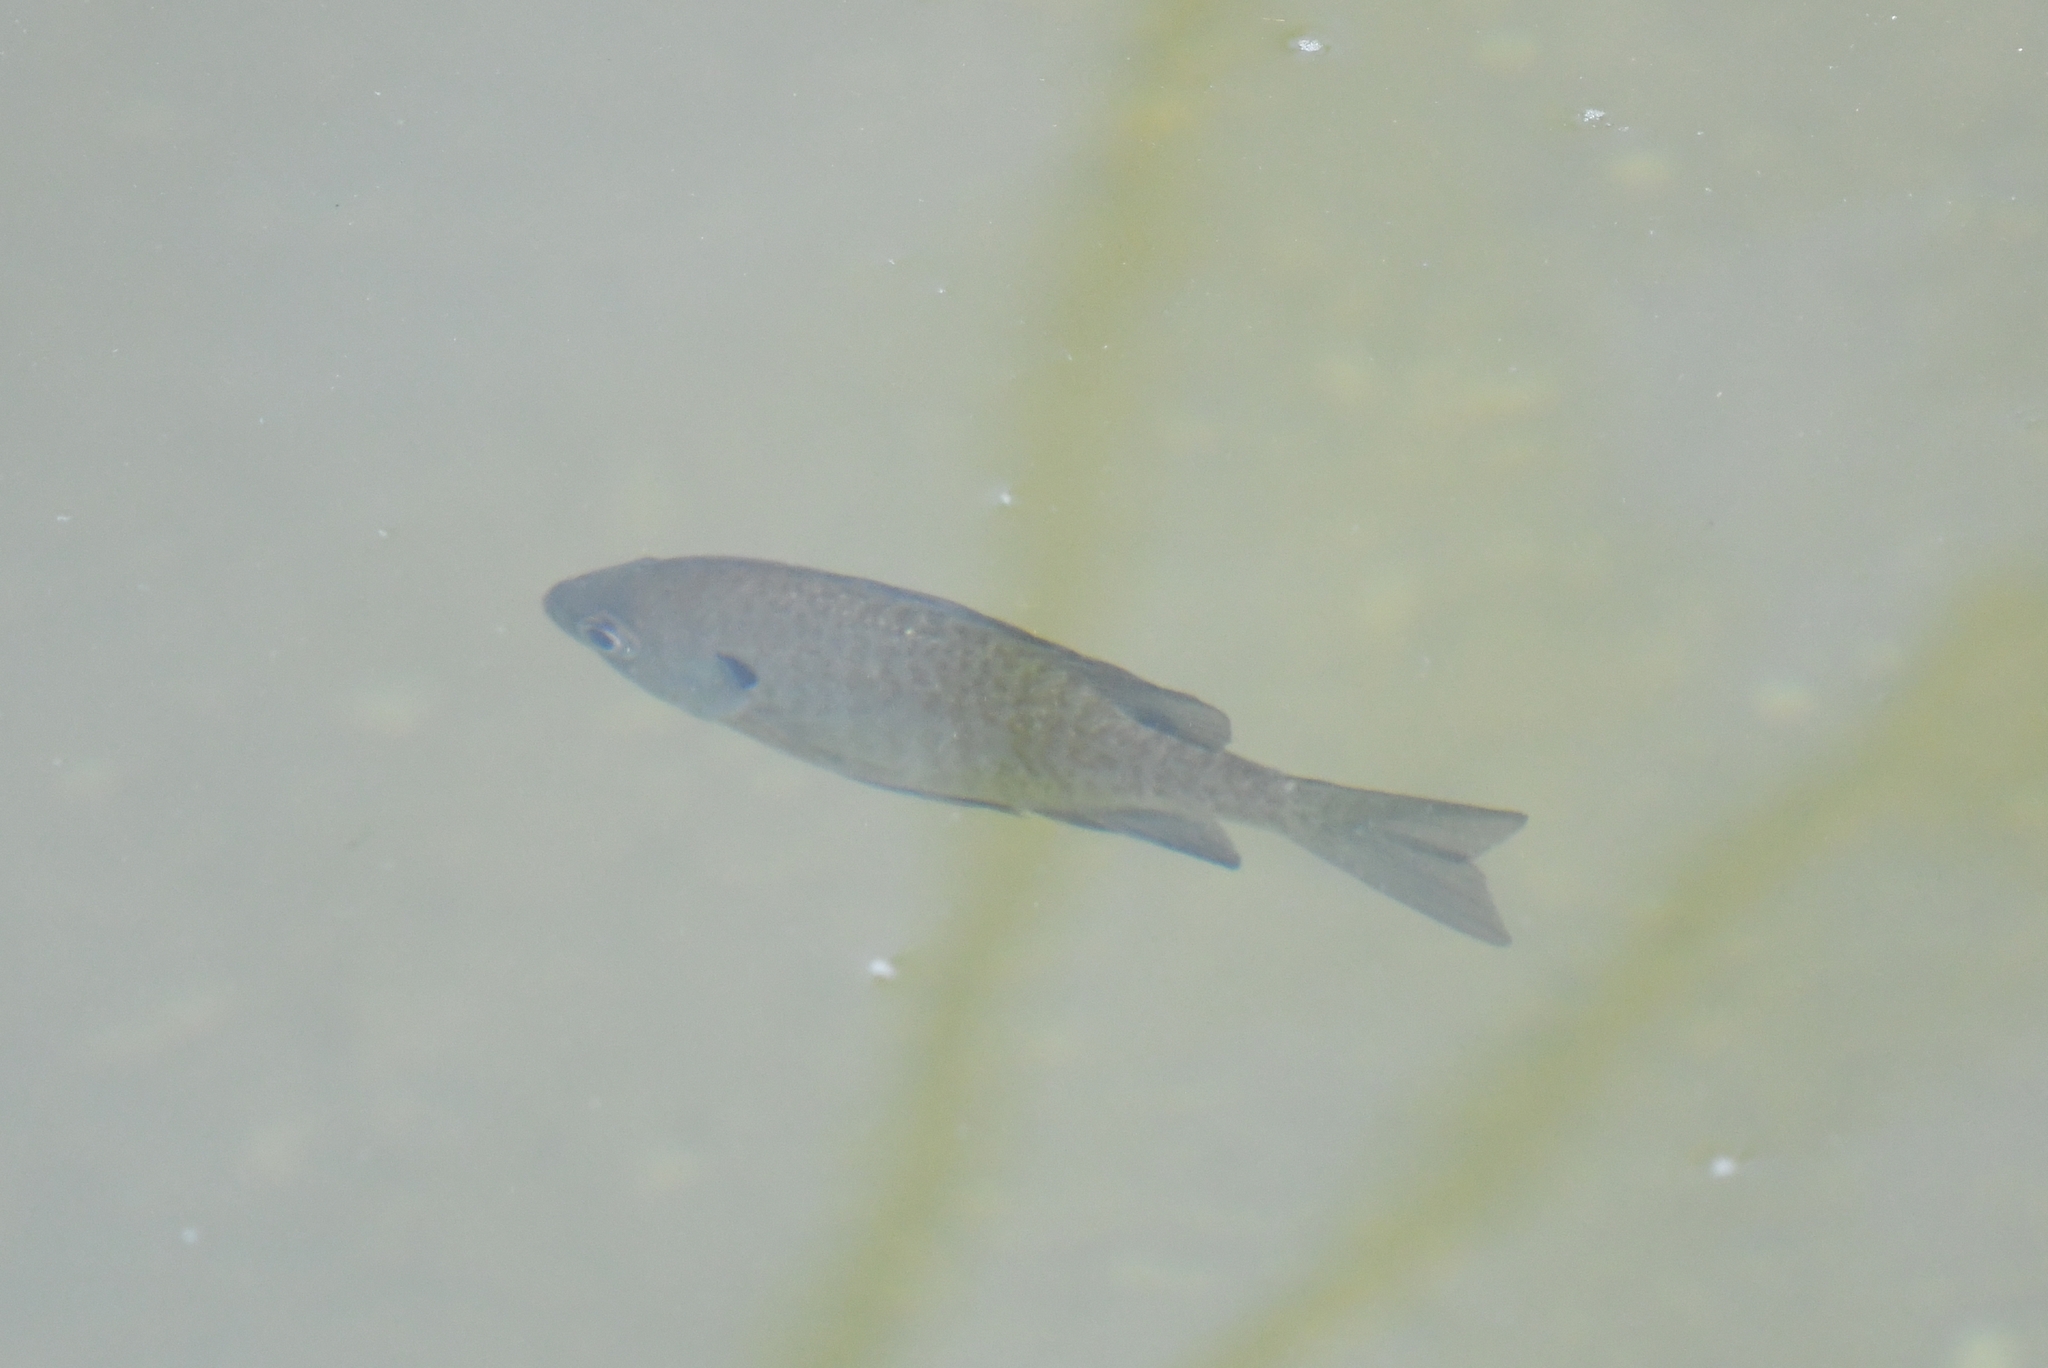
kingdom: Animalia
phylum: Chordata
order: Perciformes
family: Centrarchidae
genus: Lepomis
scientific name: Lepomis macrochirus
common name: Bluegill
